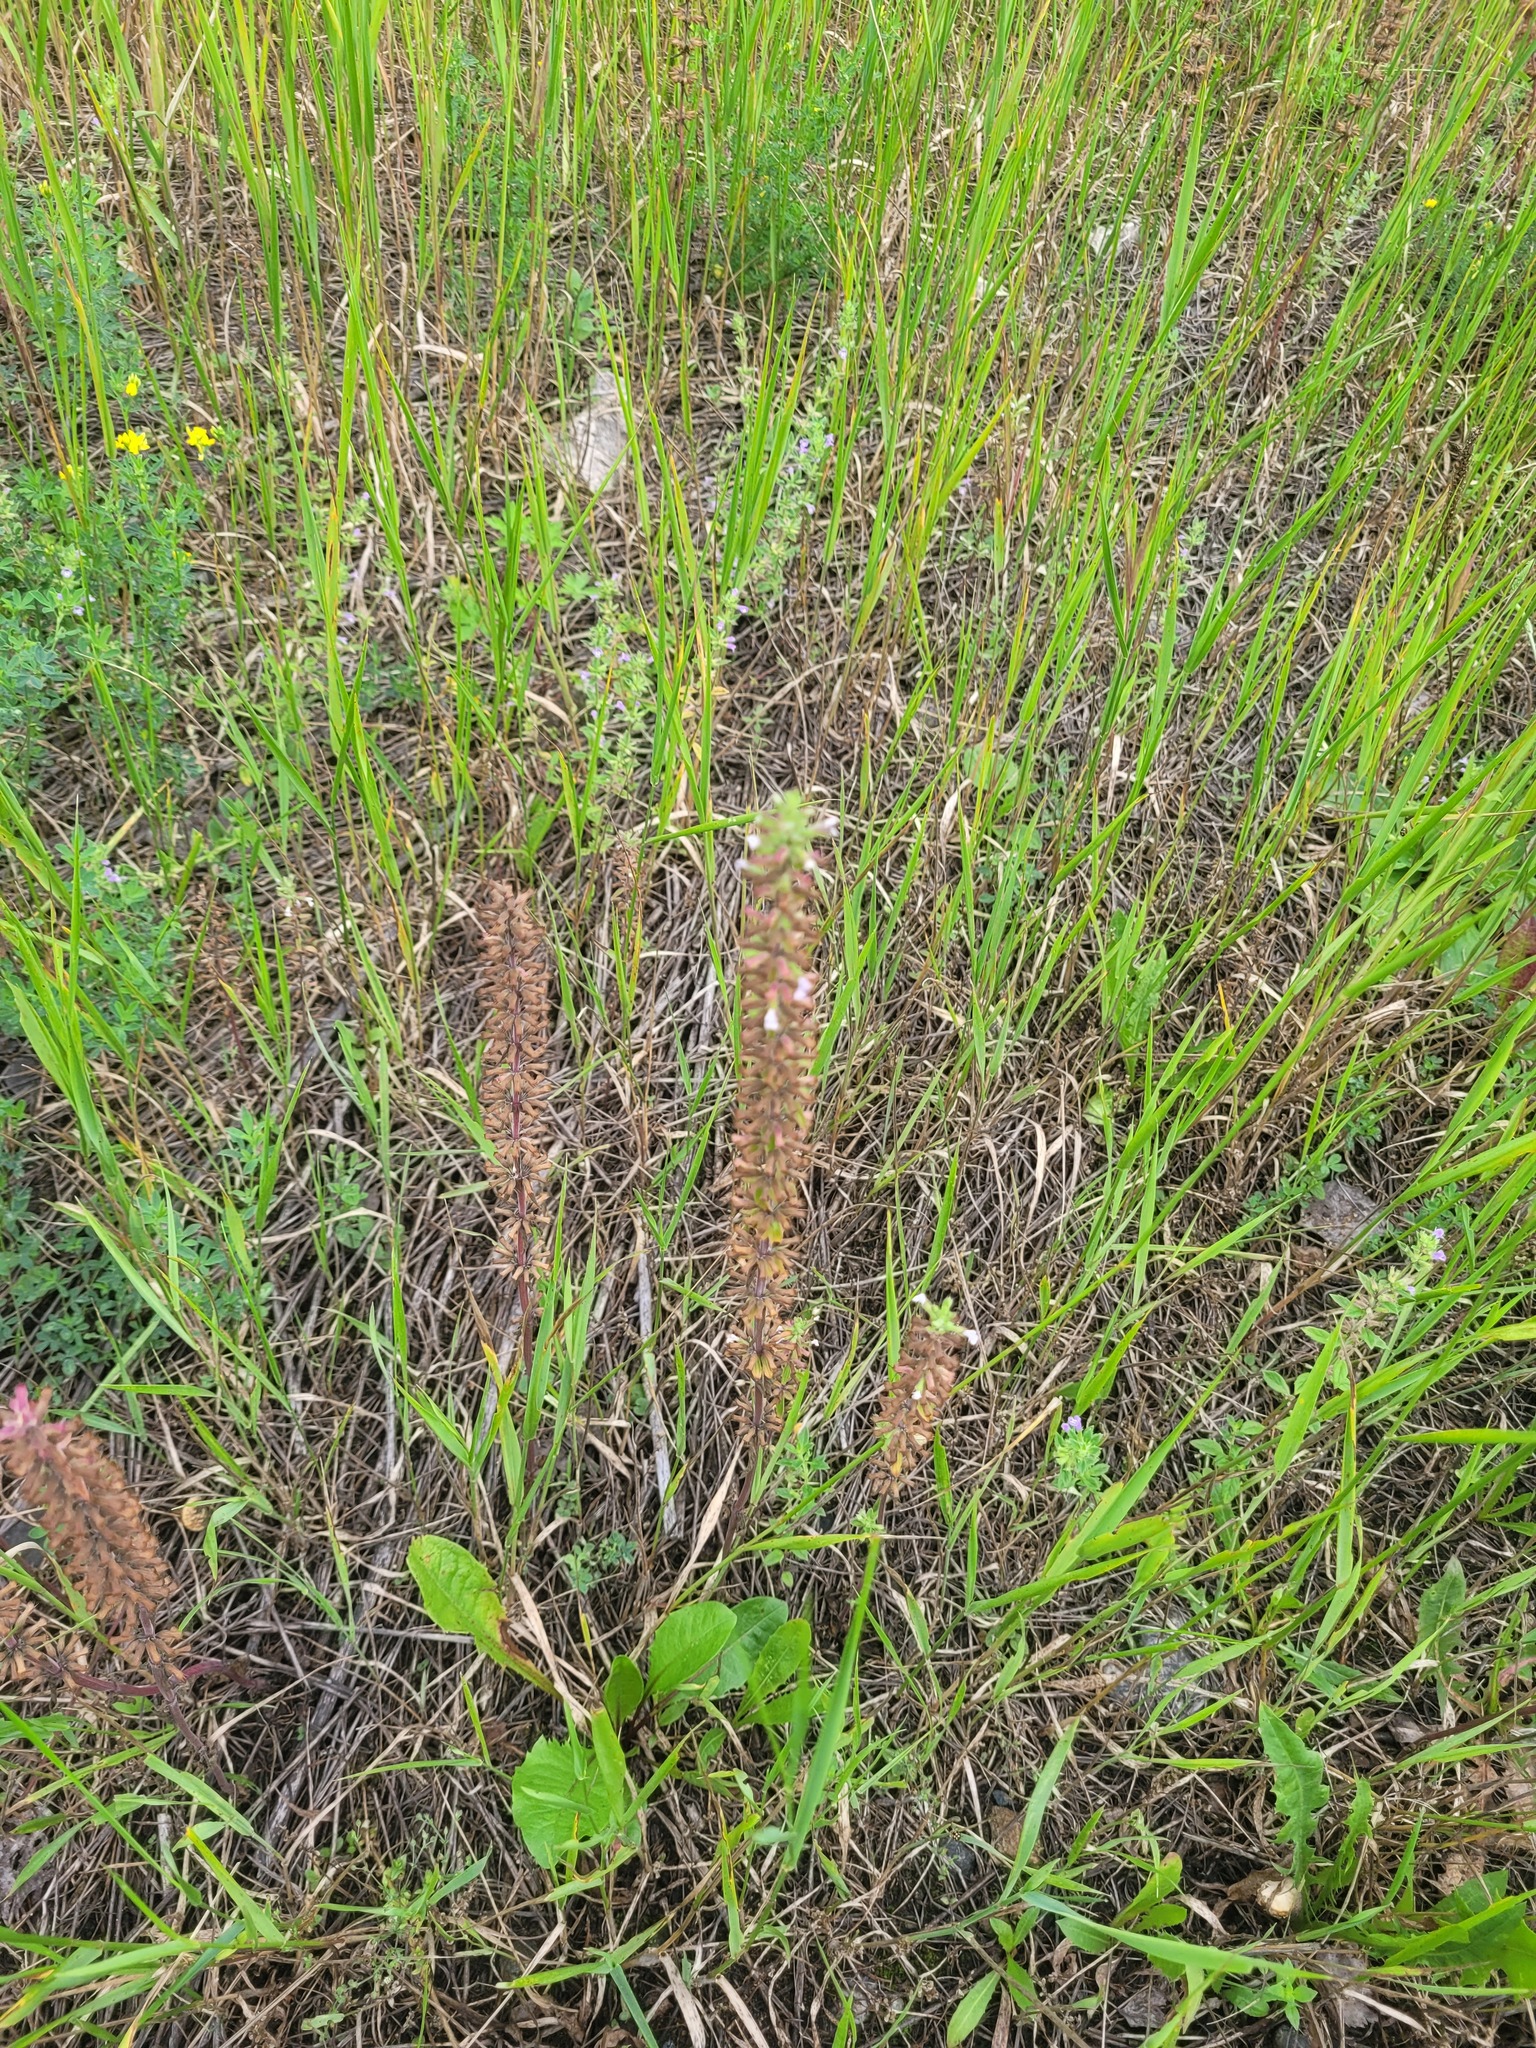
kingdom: Plantae
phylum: Tracheophyta
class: Magnoliopsida
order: Lamiales
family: Lamiaceae
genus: Dracocephalum
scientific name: Dracocephalum thymiflorum
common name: Thymeleaf dragonhead
